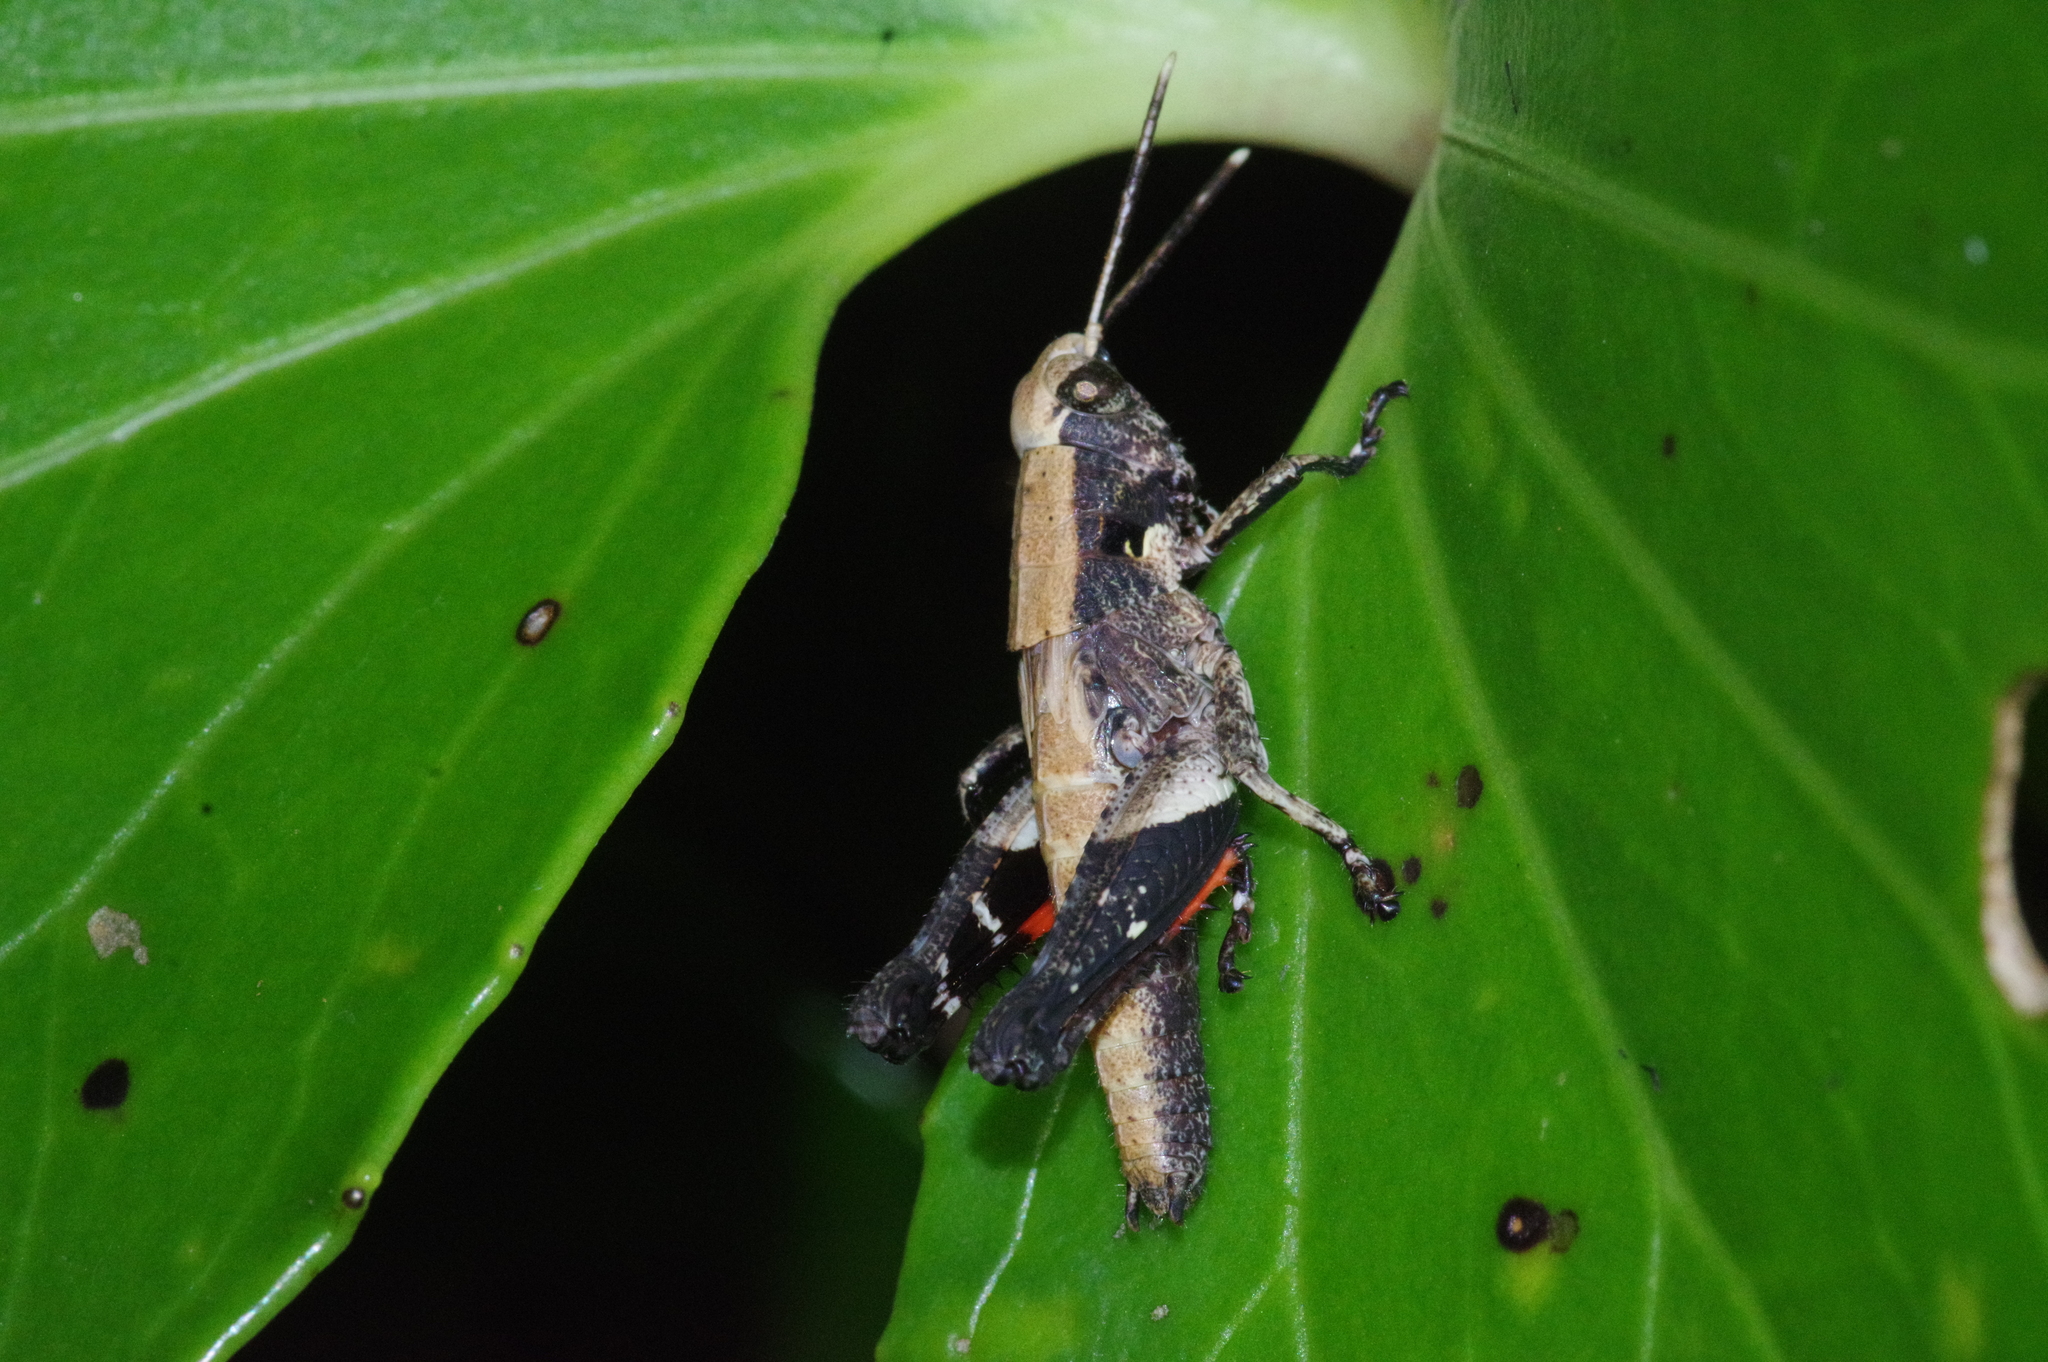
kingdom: Animalia
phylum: Arthropoda
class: Insecta
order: Orthoptera
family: Acrididae
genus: Traulia
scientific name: Traulia ornata
